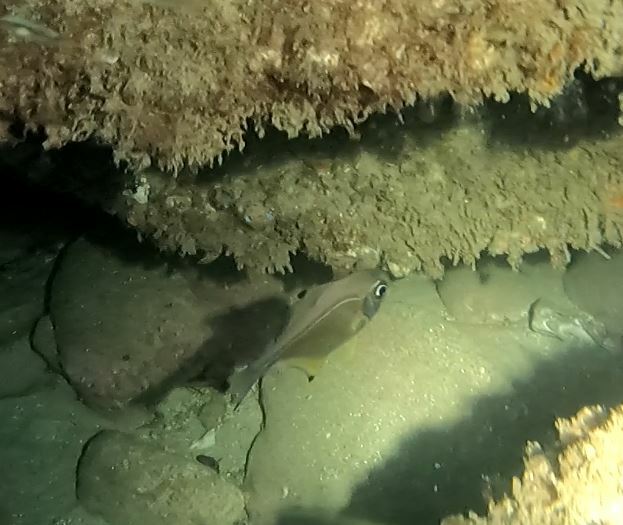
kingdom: Animalia
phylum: Chordata
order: Perciformes
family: Pempheridae
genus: Pempheris
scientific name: Pempheris affinis
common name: Black-tipped bullseye
